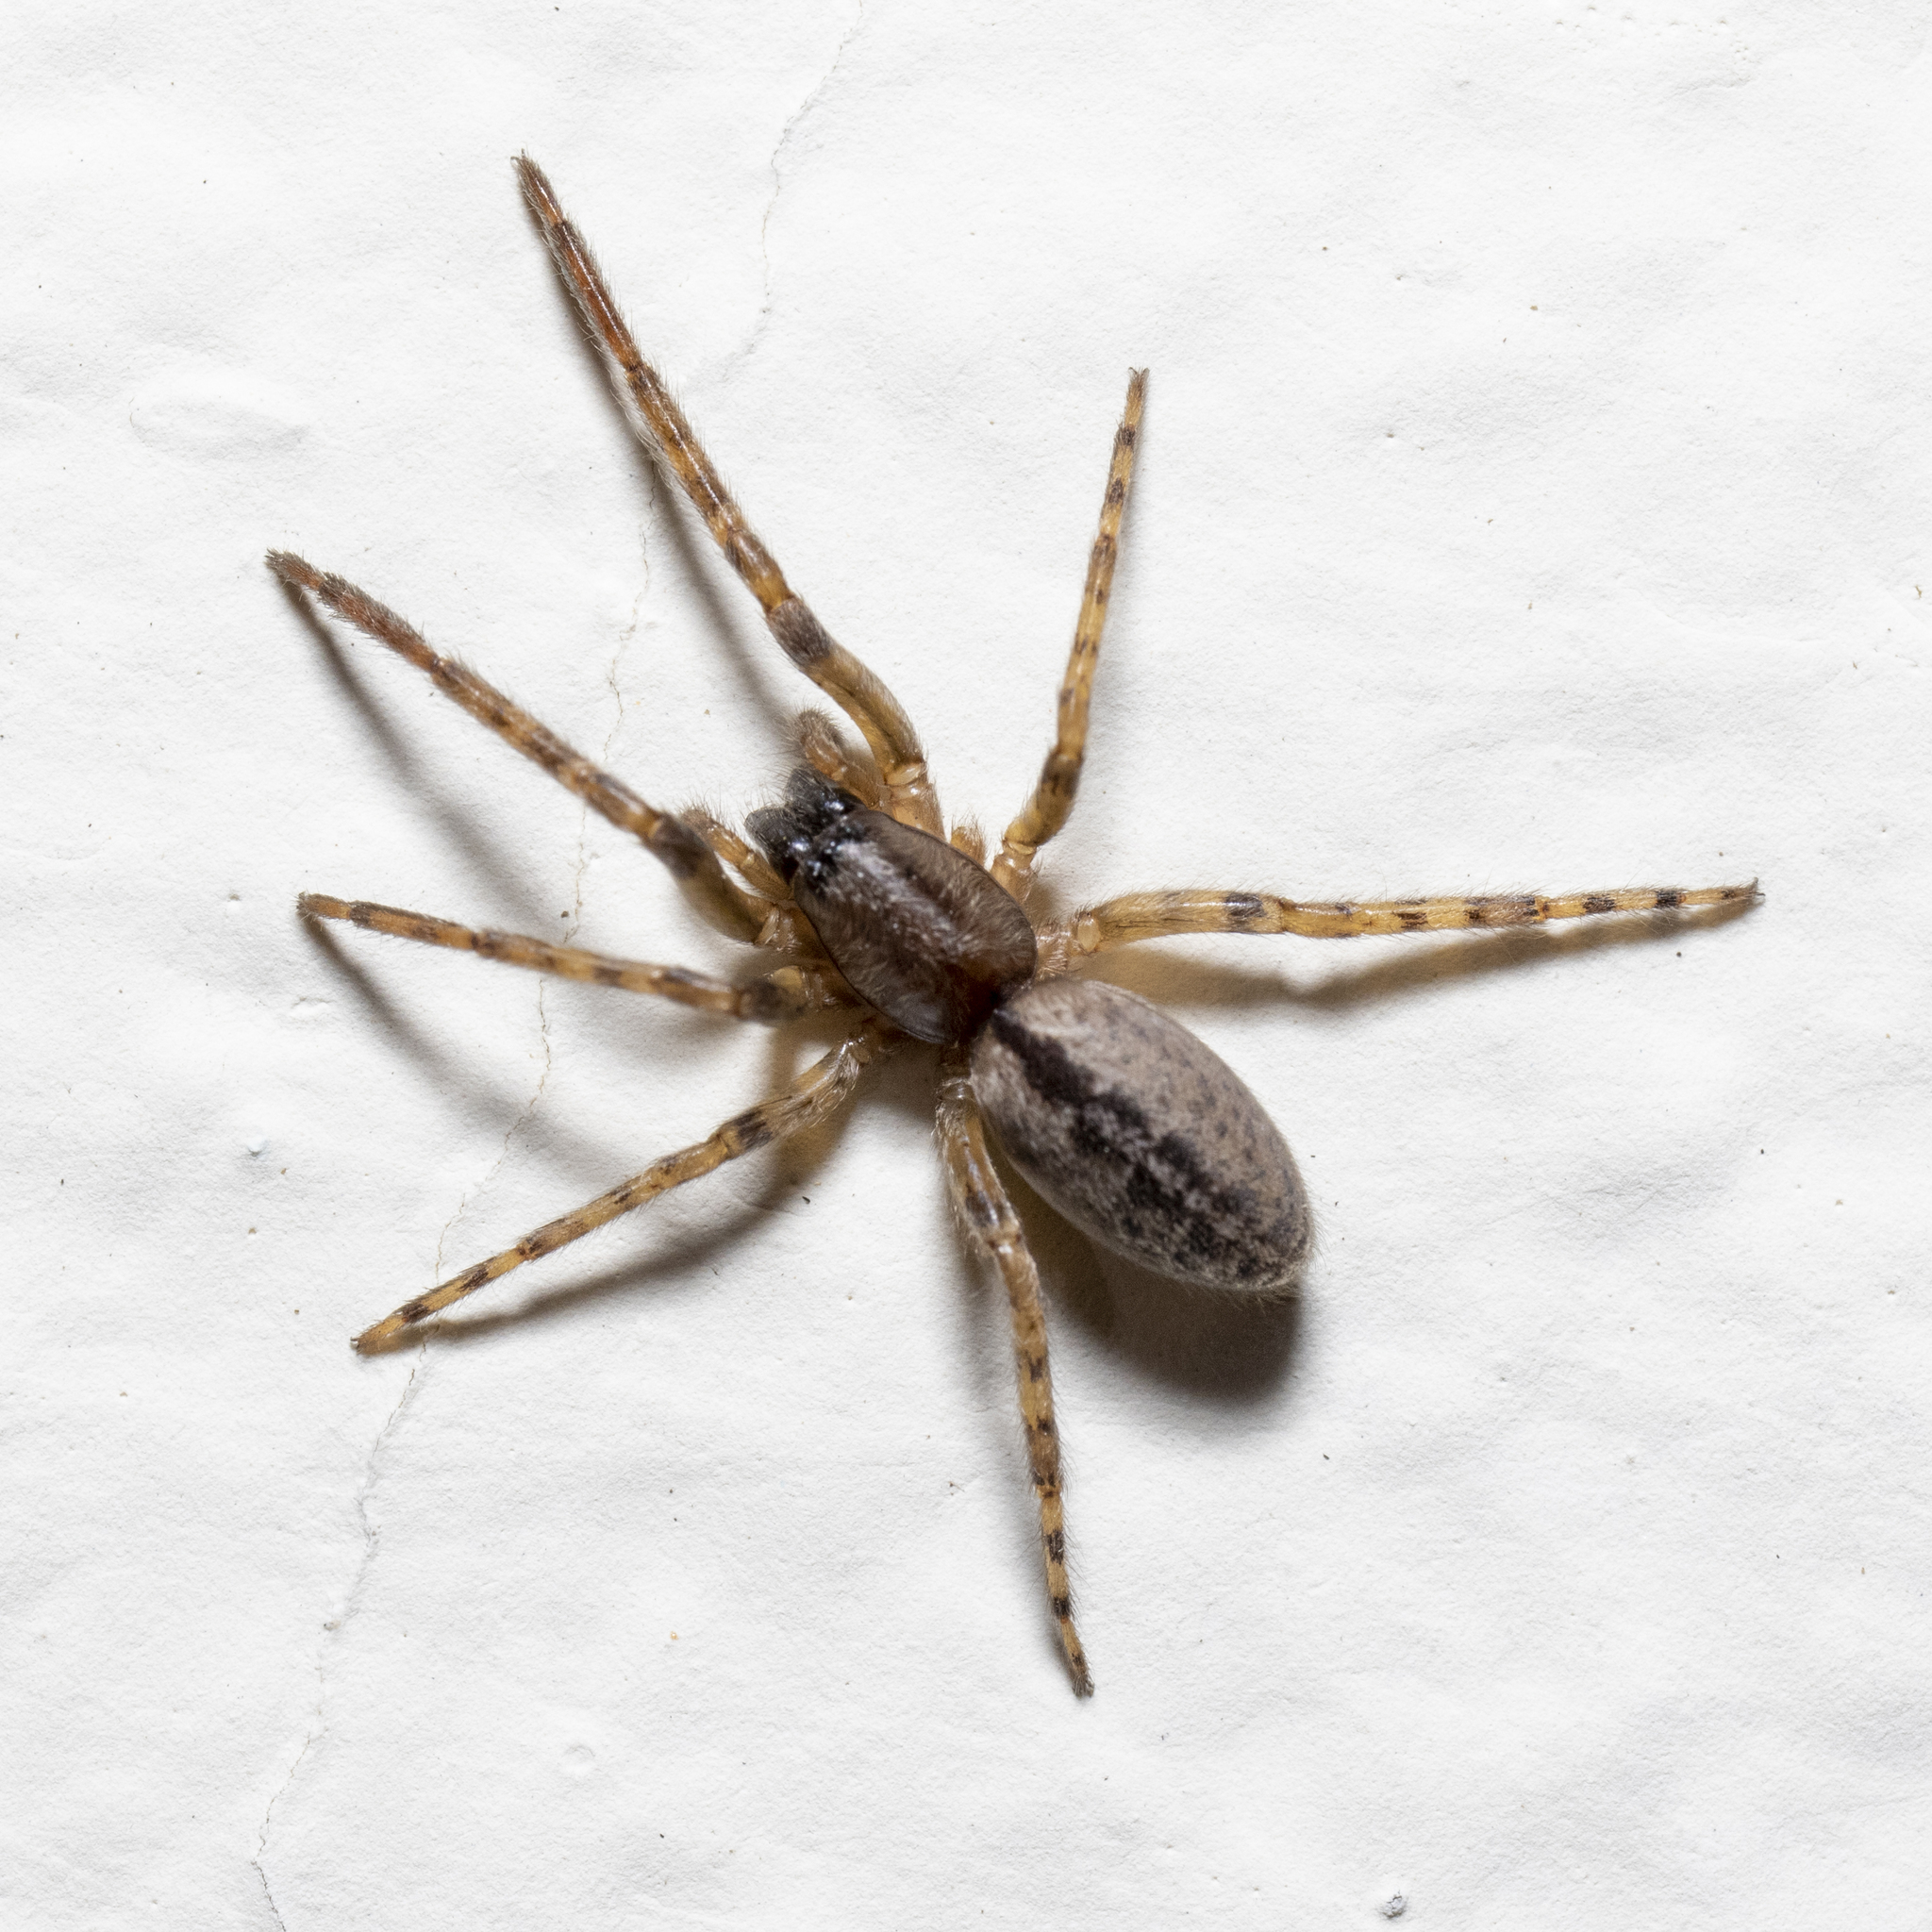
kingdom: Animalia
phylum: Arthropoda
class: Arachnida
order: Araneae
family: Segestriidae
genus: Segestria
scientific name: Segestria bavarica
